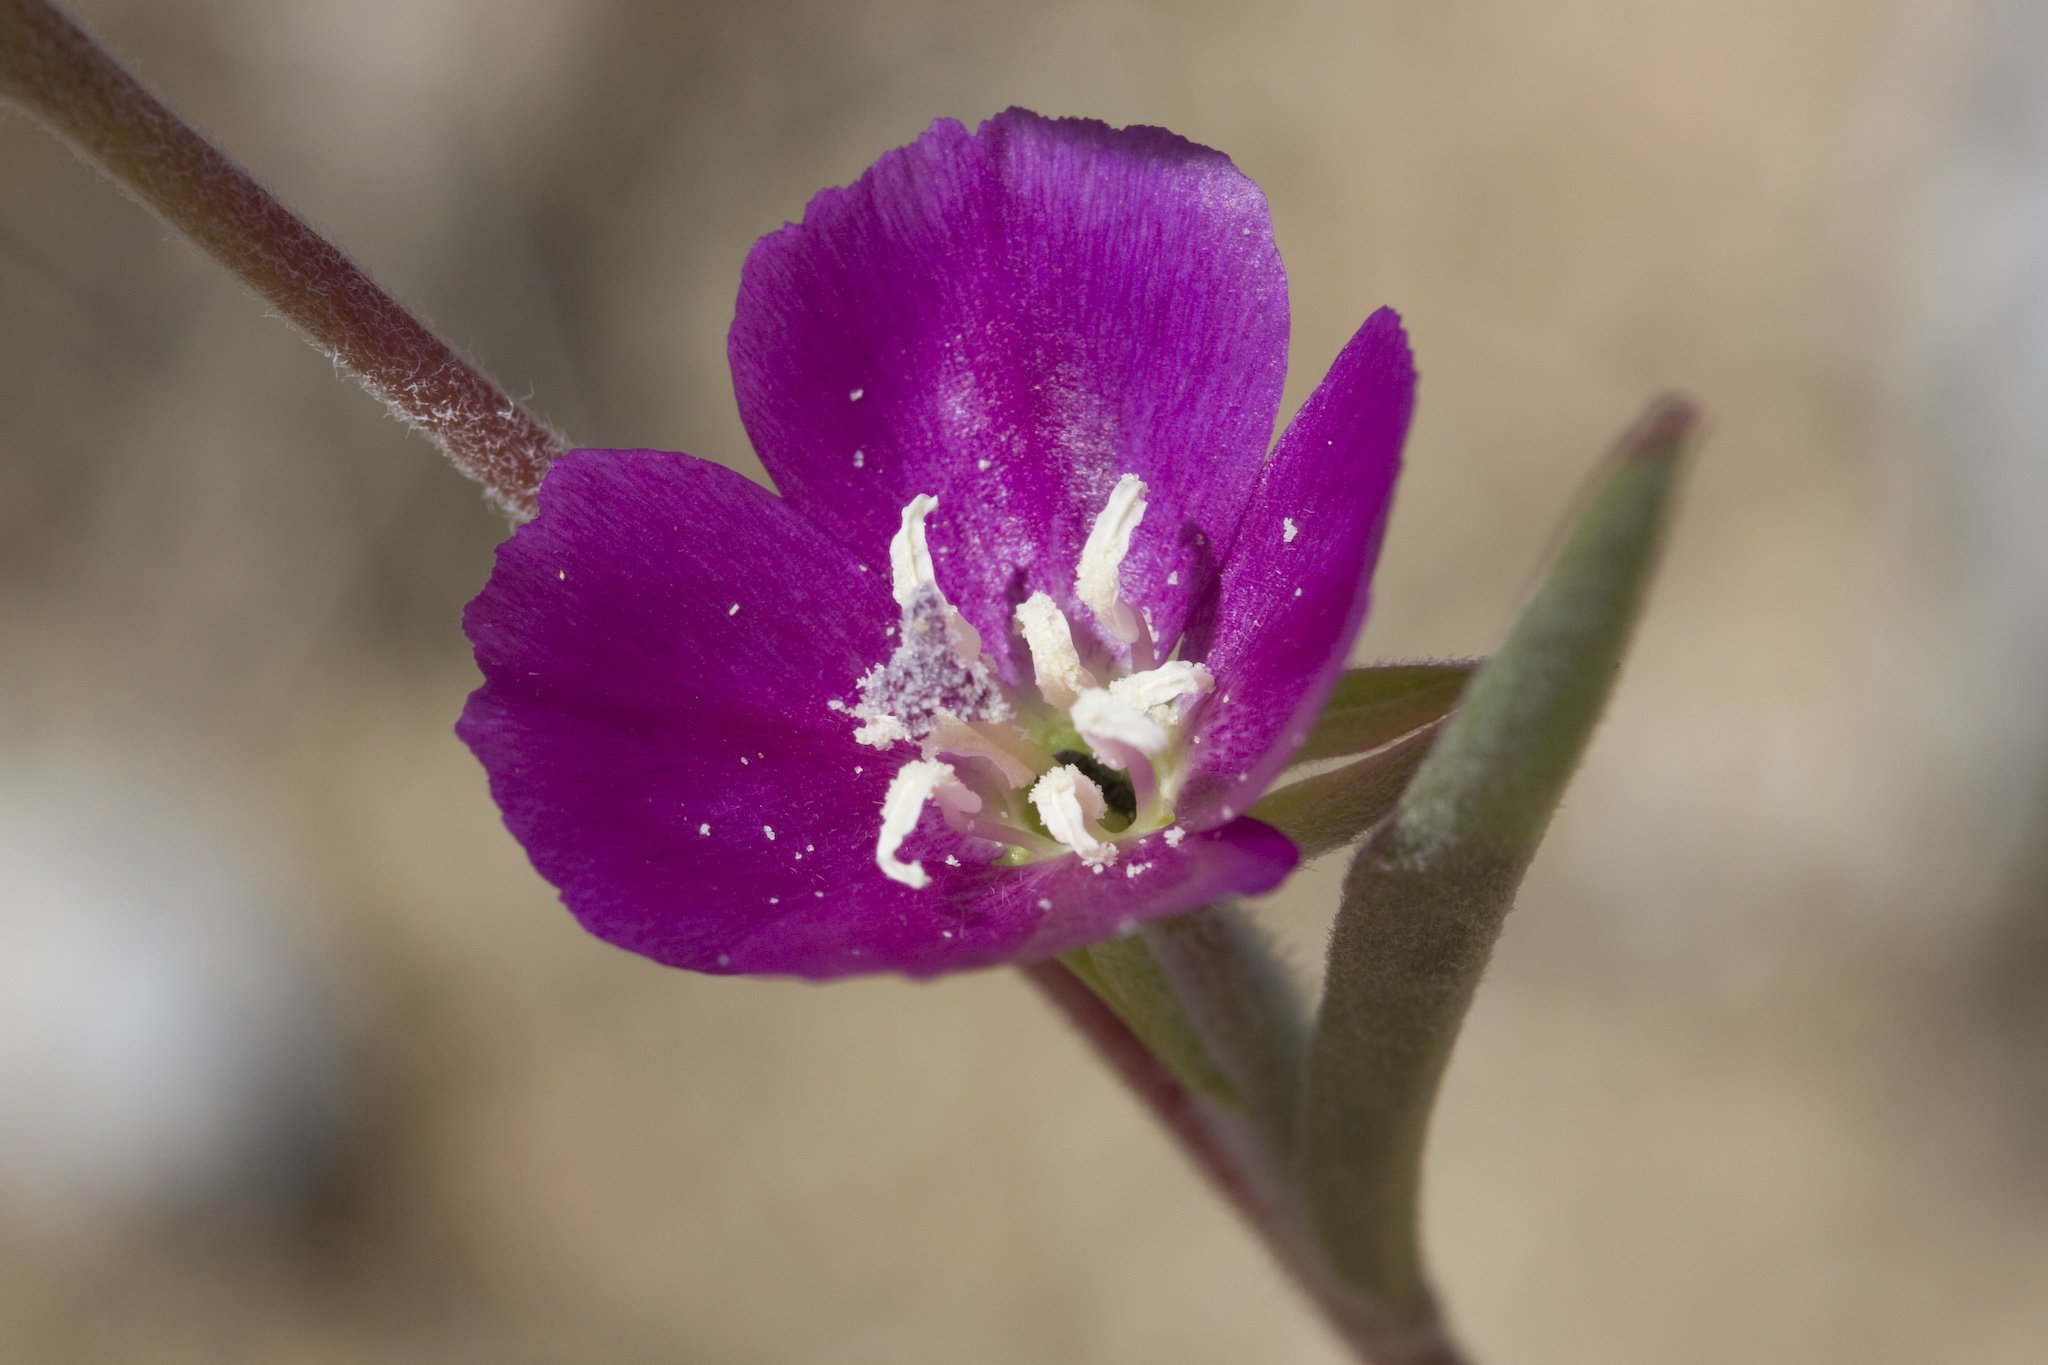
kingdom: Plantae
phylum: Tracheophyta
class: Magnoliopsida
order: Myrtales
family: Onagraceae
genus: Clarkia
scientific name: Clarkia purpurea
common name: Purple clarkia
